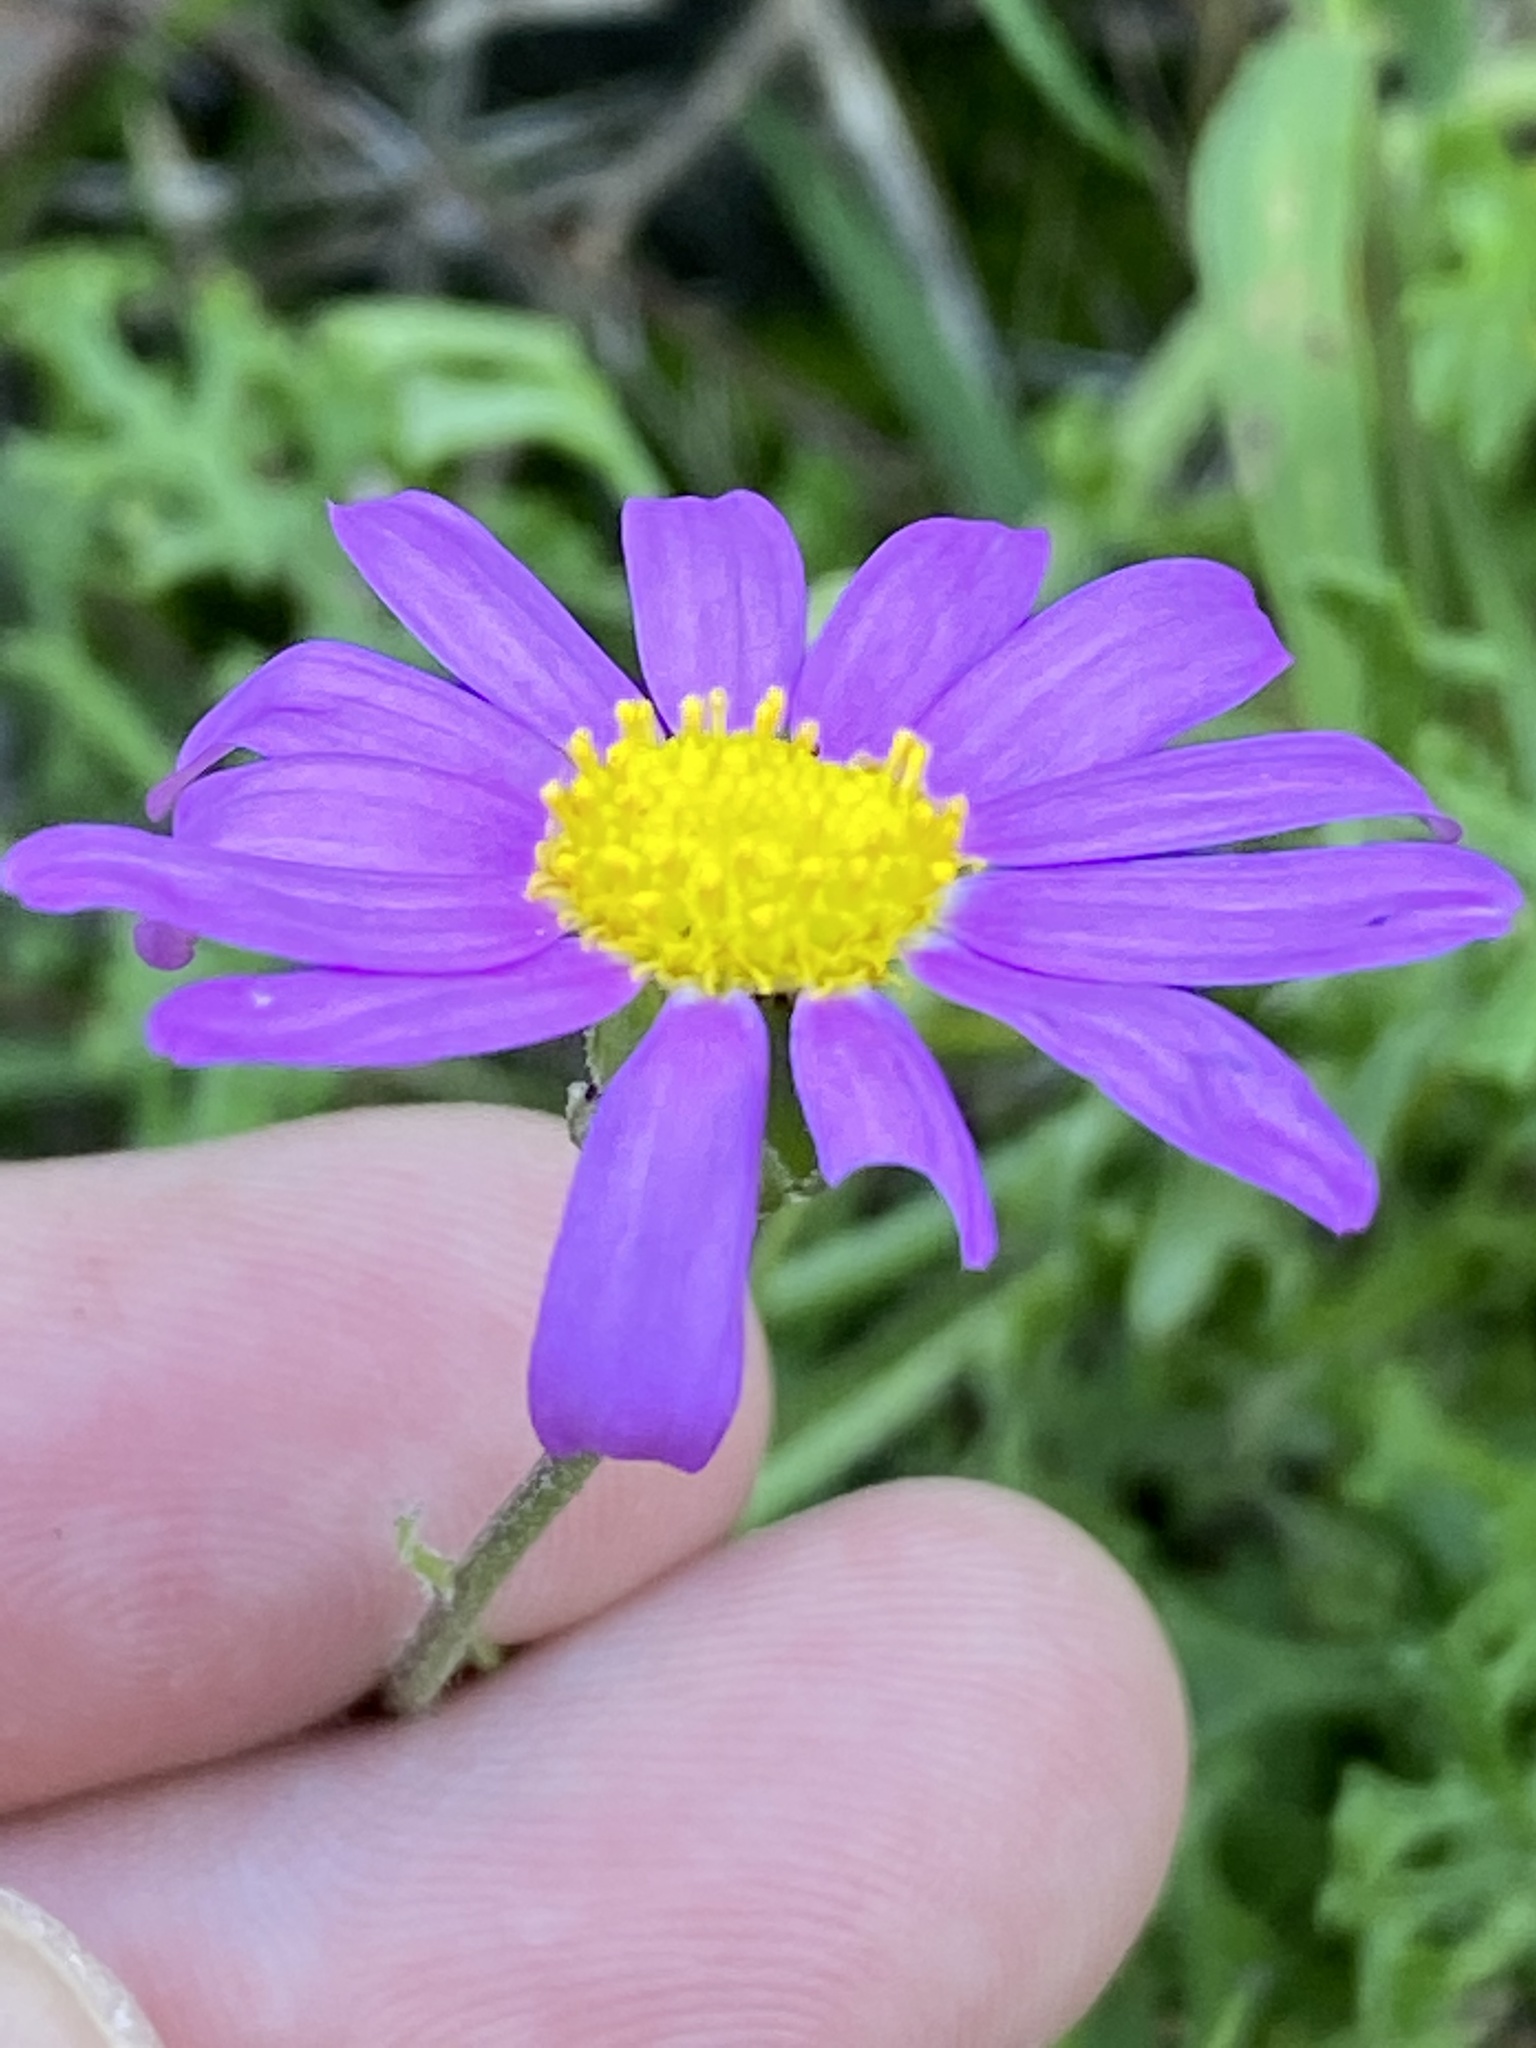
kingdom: Plantae
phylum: Tracheophyta
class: Magnoliopsida
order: Asterales
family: Asteraceae
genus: Senecio
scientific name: Senecio elegans
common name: Purple groundsel
